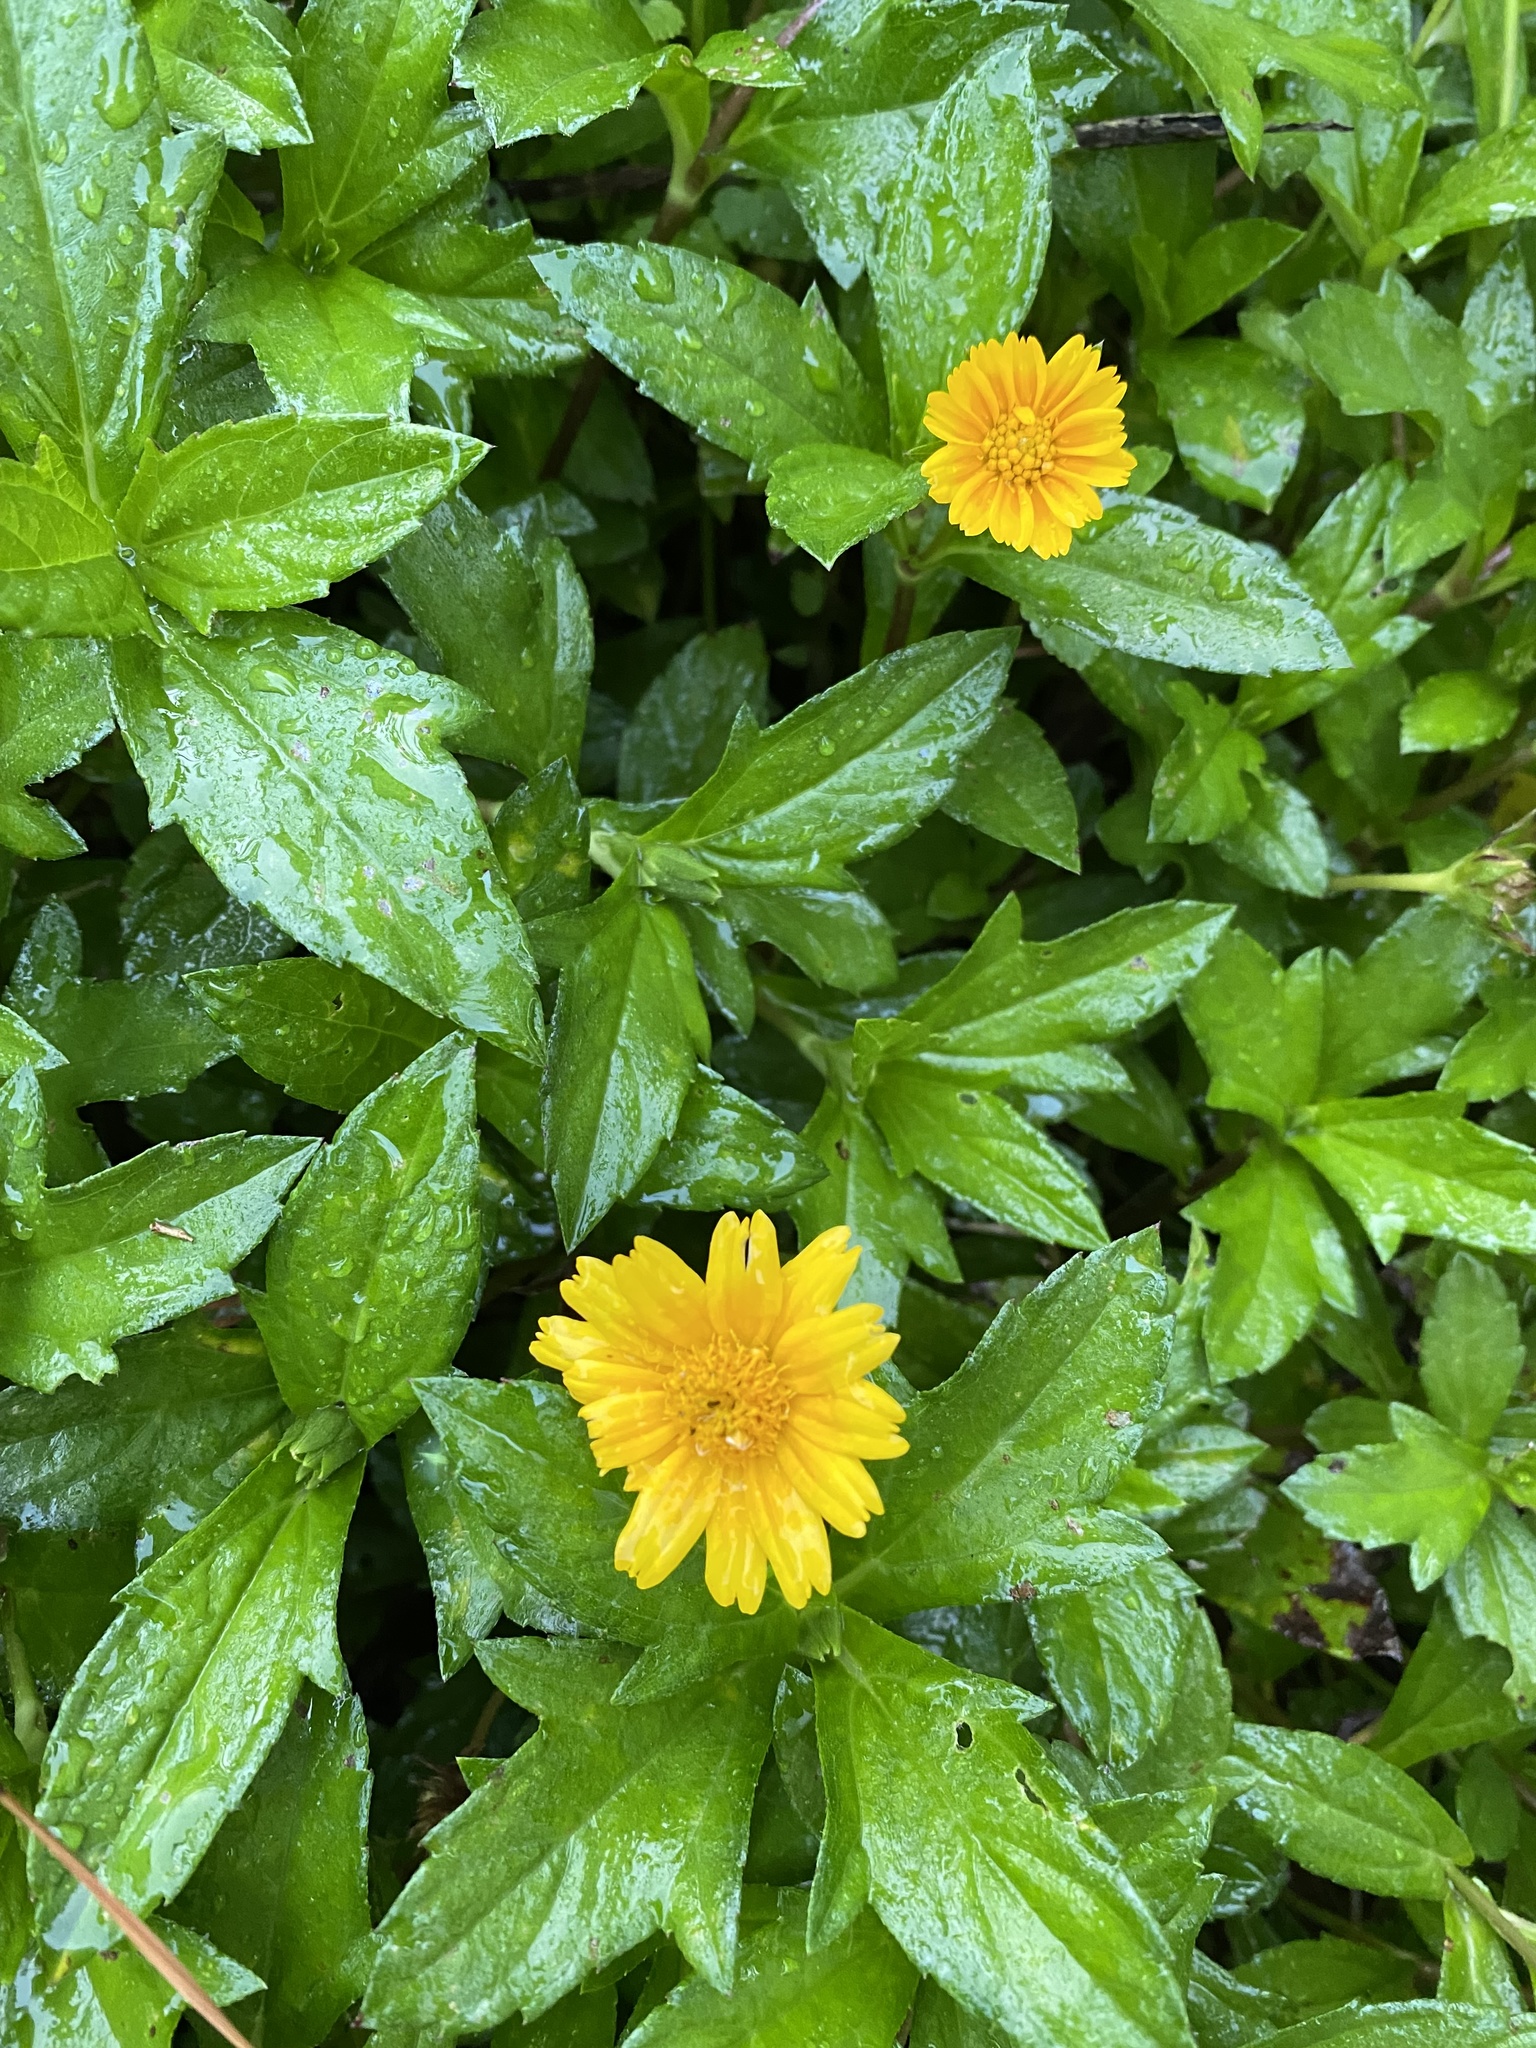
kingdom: Plantae
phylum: Tracheophyta
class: Magnoliopsida
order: Asterales
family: Asteraceae
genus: Sphagneticola
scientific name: Sphagneticola trilobata
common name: Bay biscayne creeping-oxeye
